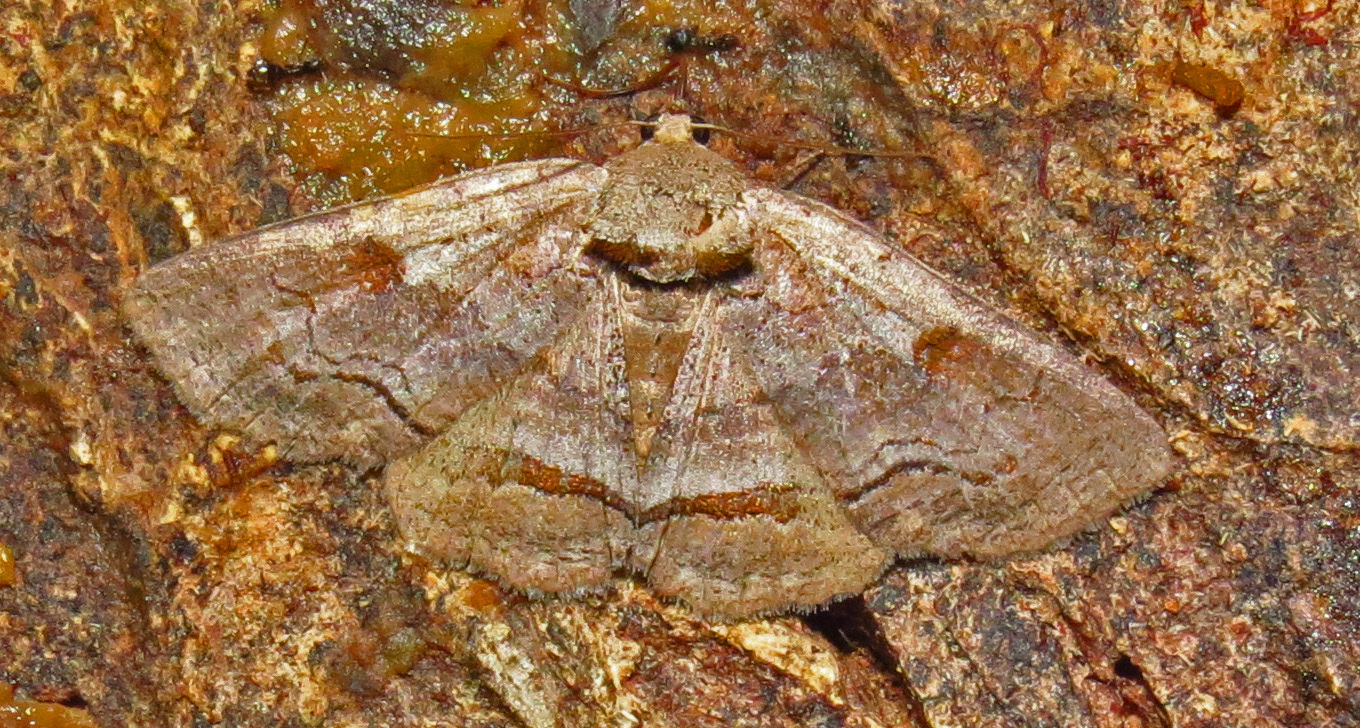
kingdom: Animalia
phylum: Arthropoda
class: Insecta
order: Lepidoptera
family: Erebidae
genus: Zale
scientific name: Zale
